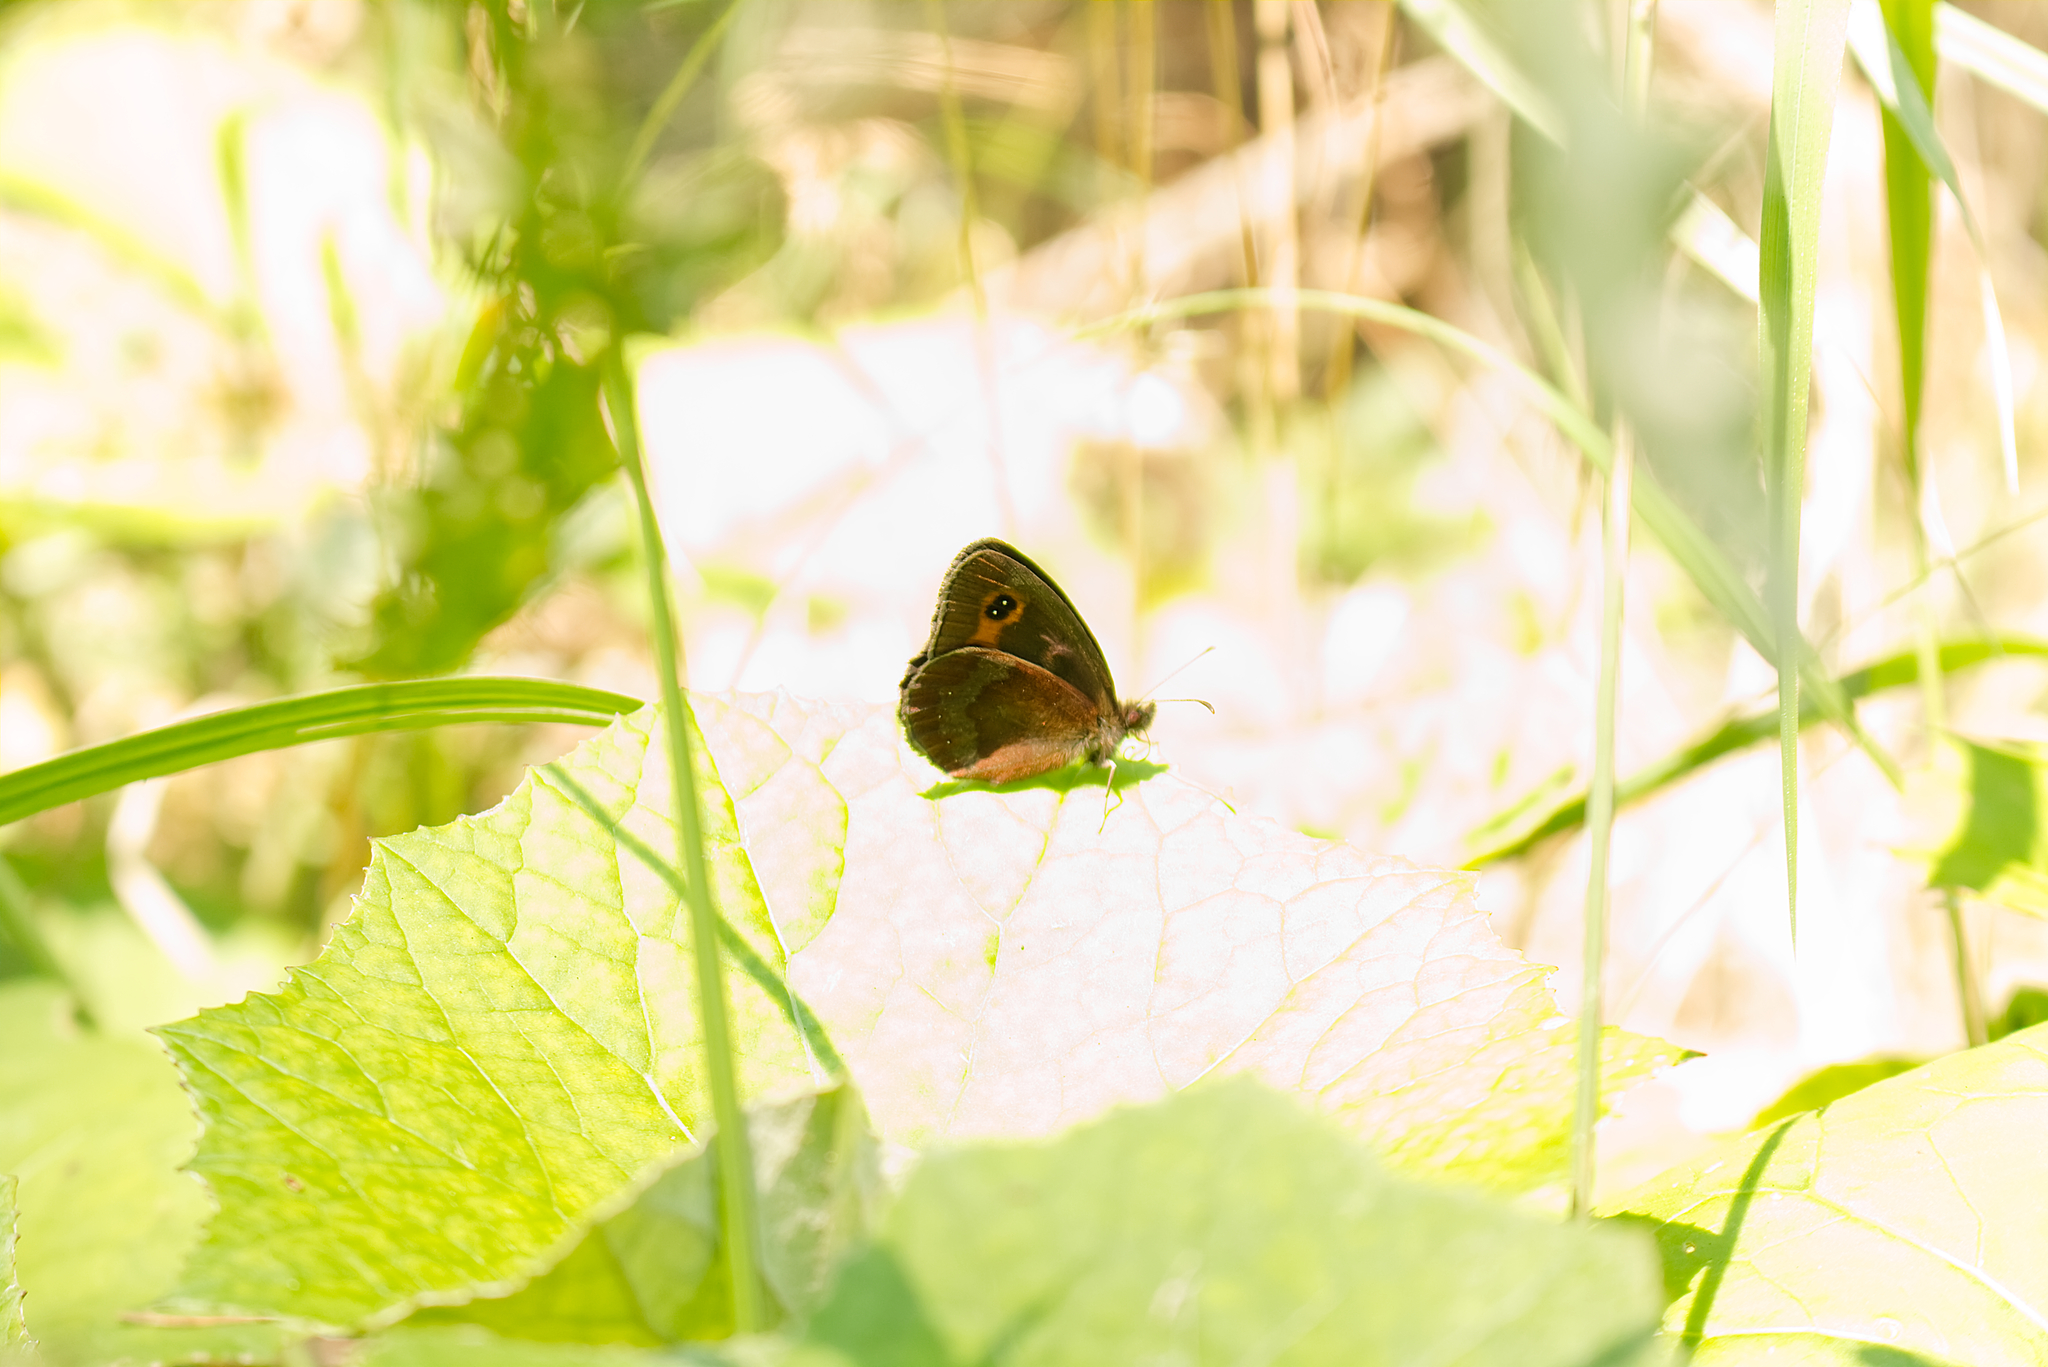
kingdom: Animalia
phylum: Arthropoda
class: Insecta
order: Lepidoptera
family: Nymphalidae
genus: Erebia
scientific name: Erebia aethiops
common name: Scotch argus
